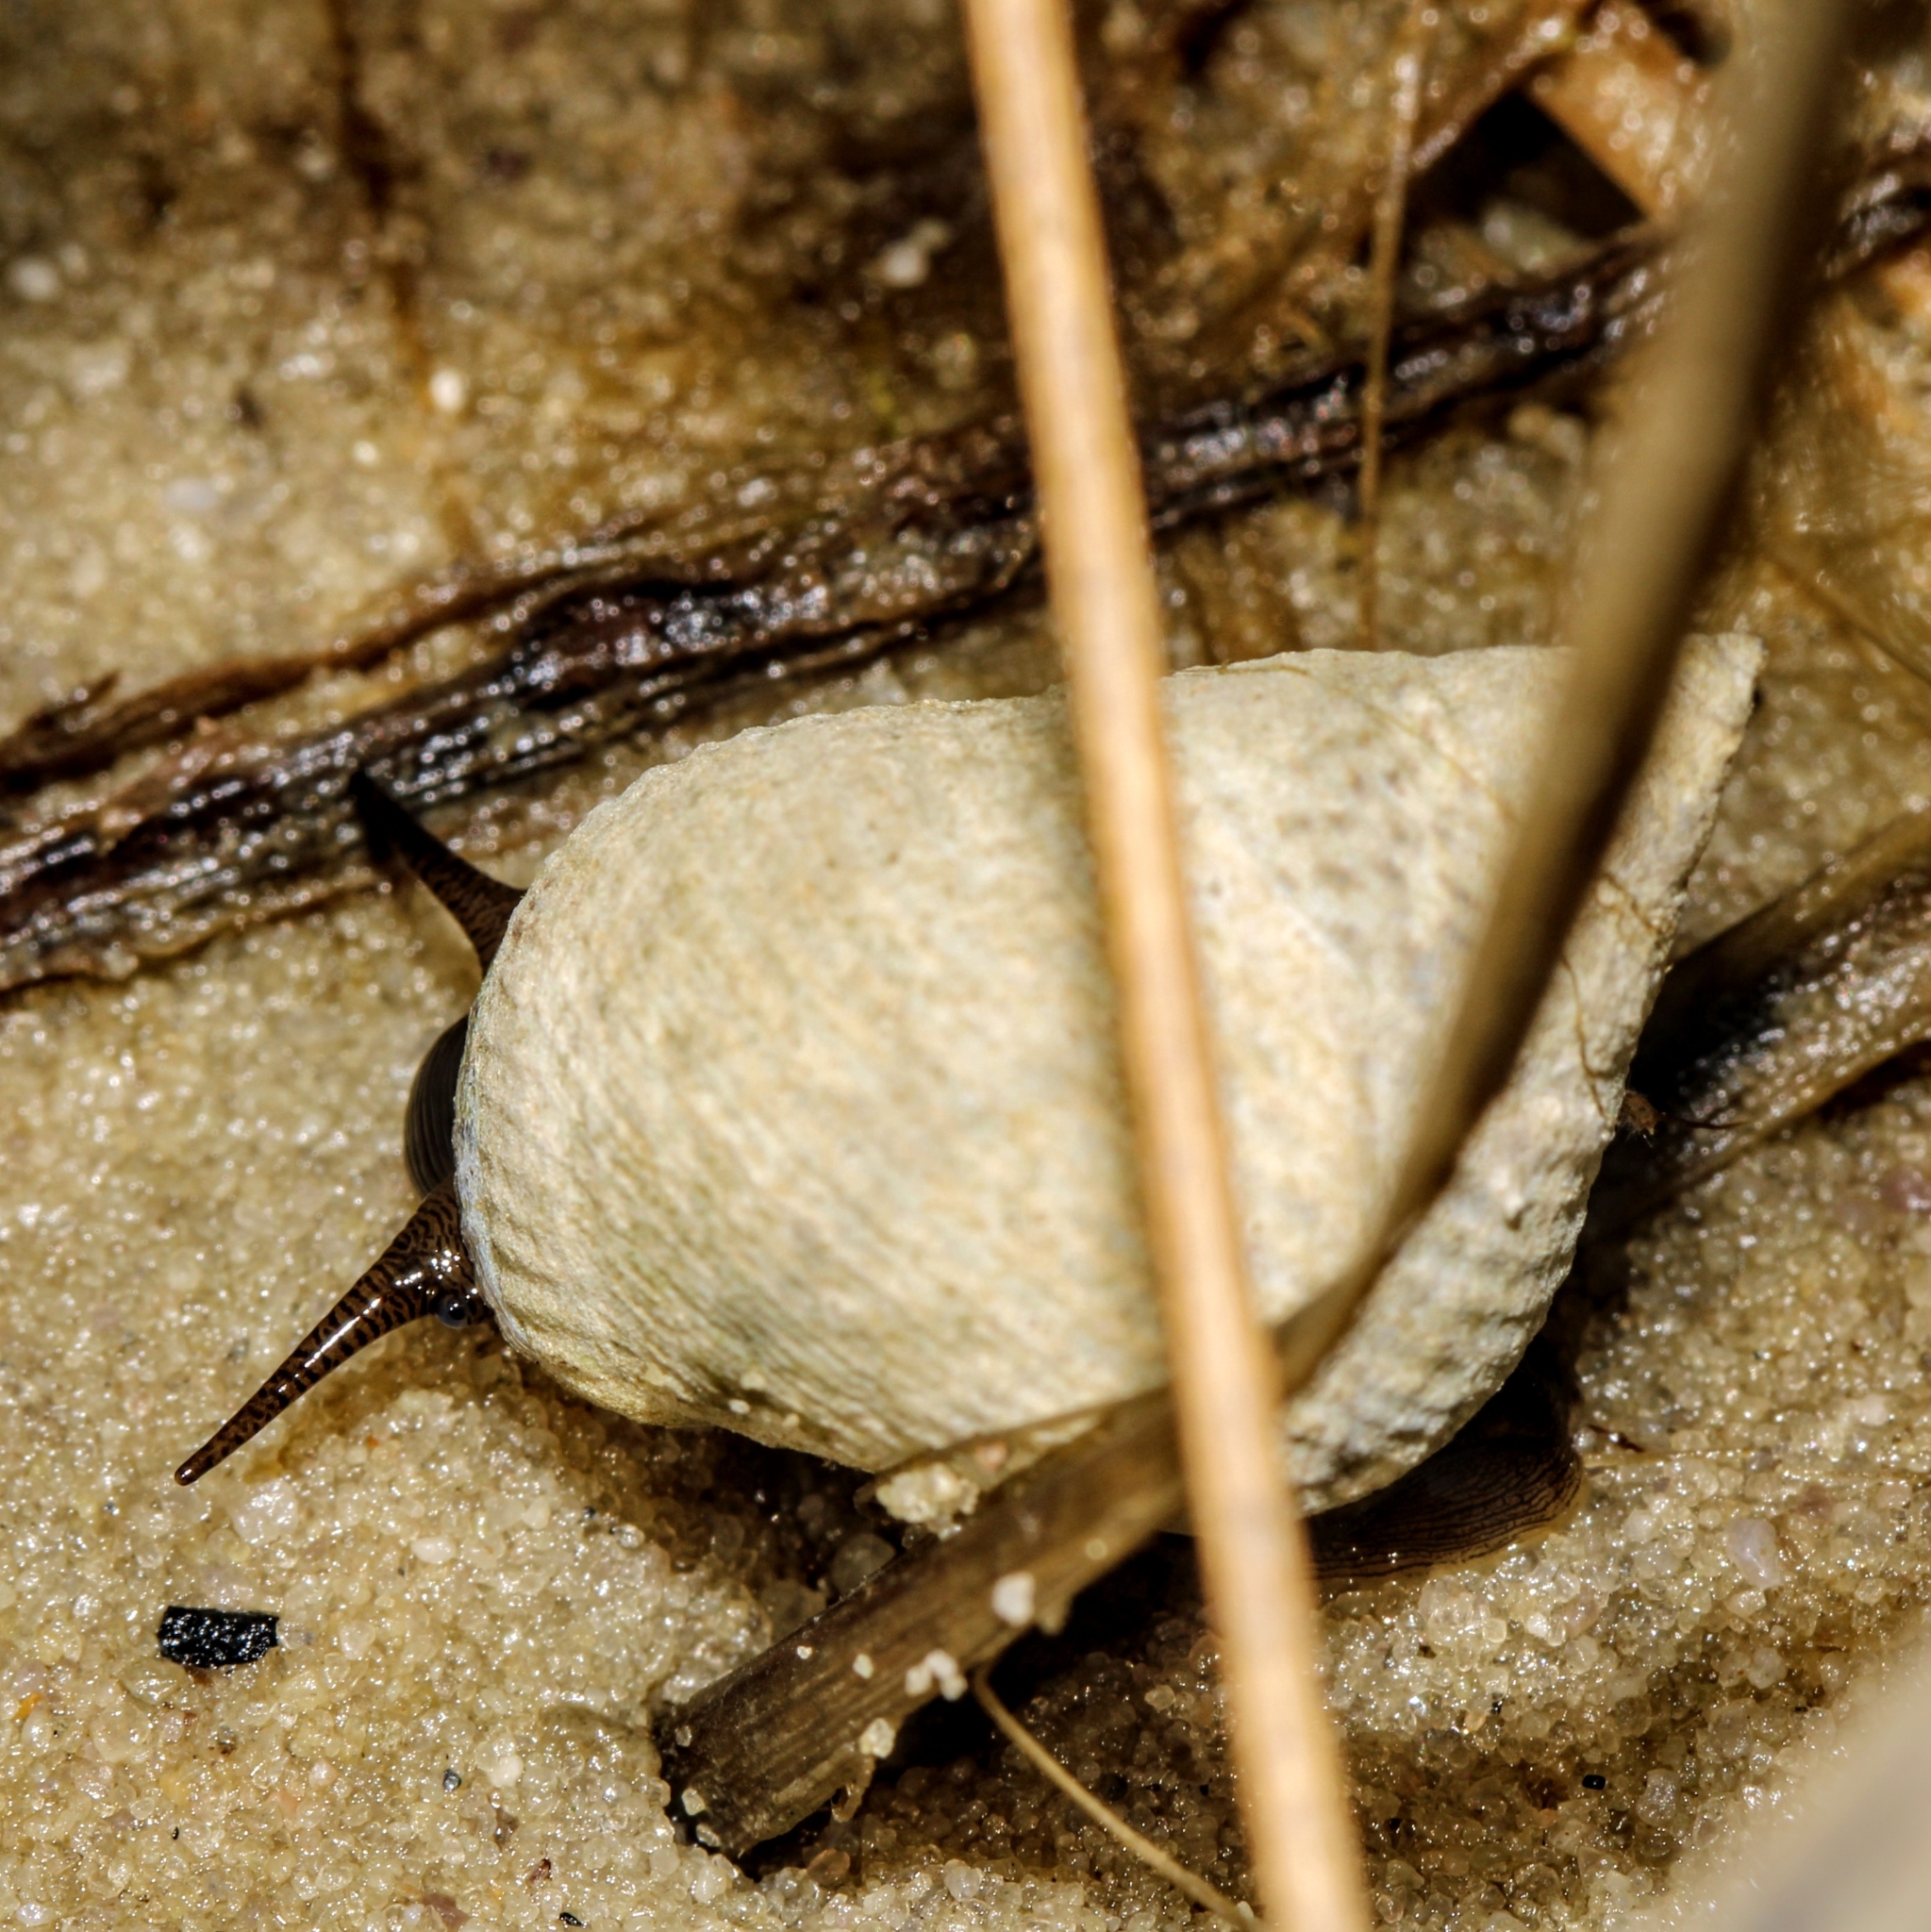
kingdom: Animalia
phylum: Mollusca
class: Gastropoda
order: Littorinimorpha
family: Littorinidae
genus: Littoraria
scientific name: Littoraria irrorata
